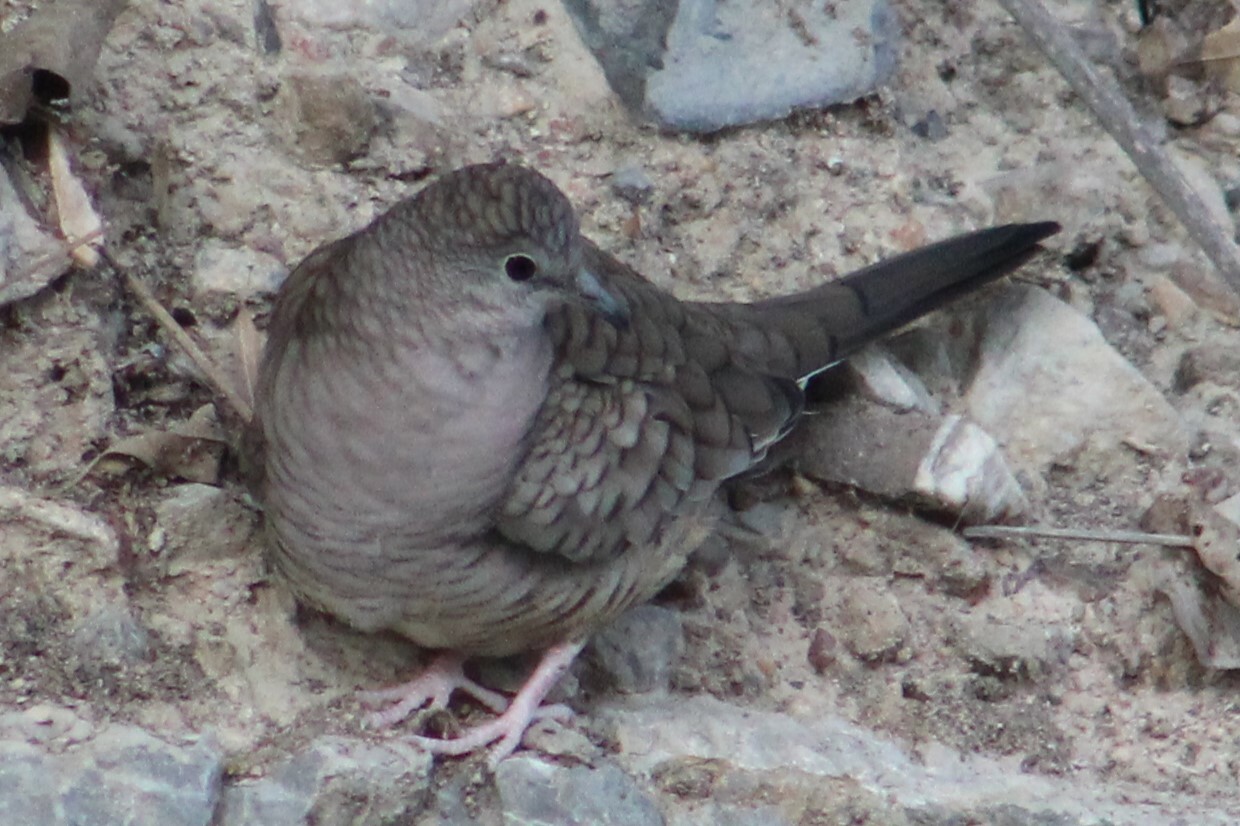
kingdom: Animalia
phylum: Chordata
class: Aves
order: Columbiformes
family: Columbidae
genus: Columbina
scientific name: Columbina inca
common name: Inca dove
